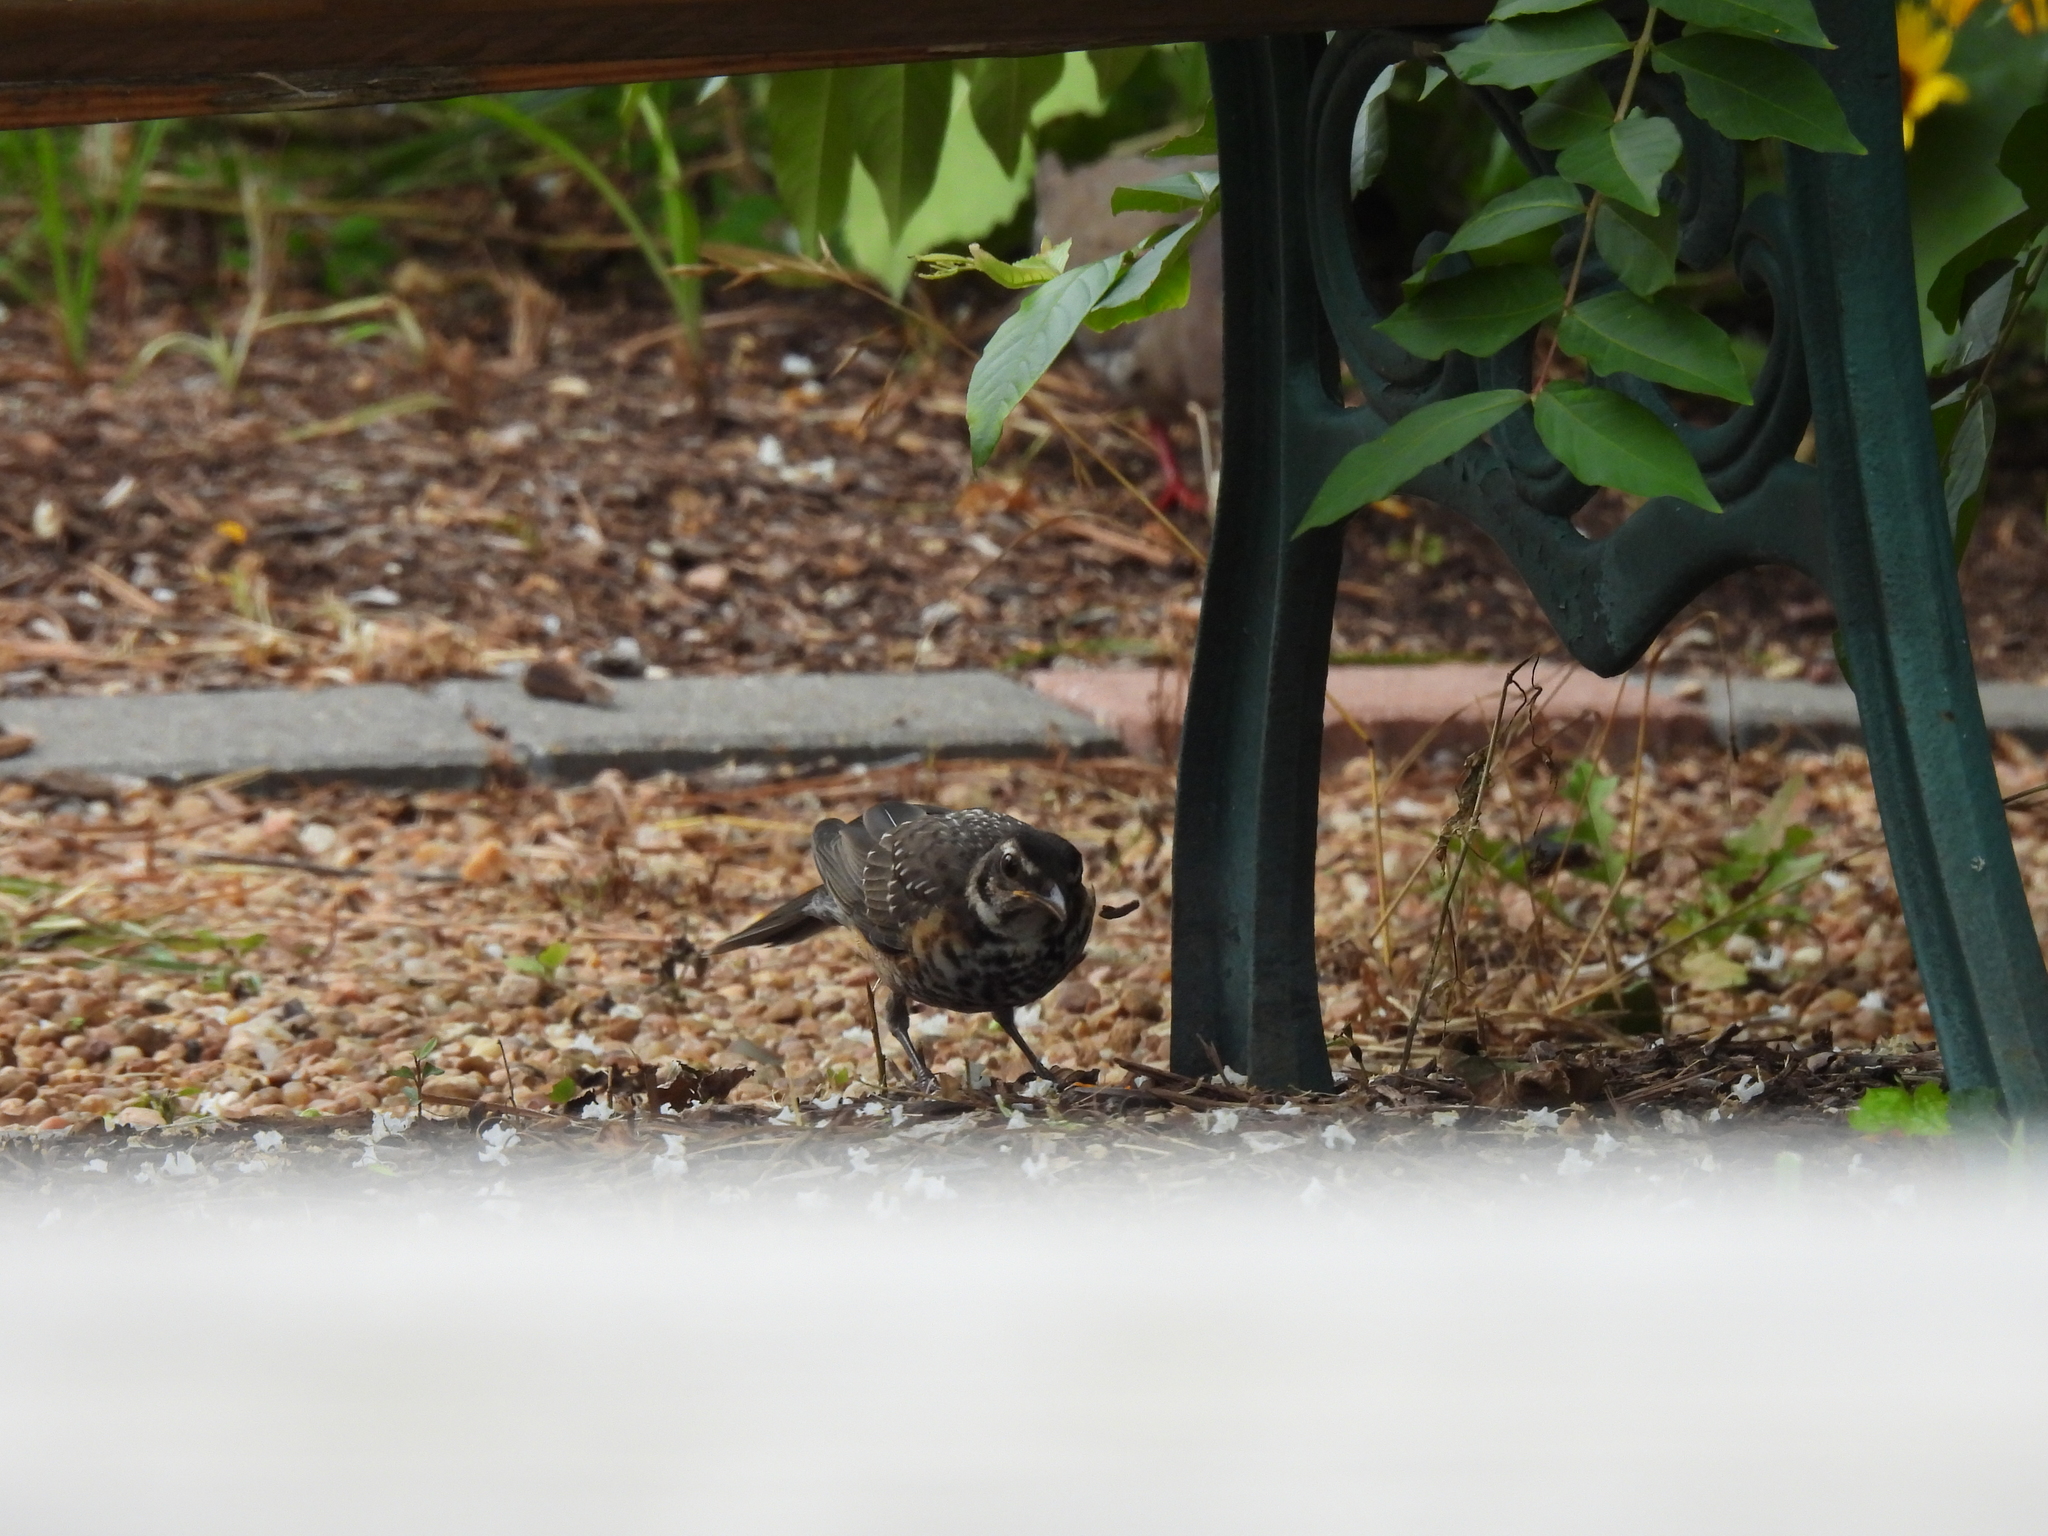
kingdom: Animalia
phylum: Chordata
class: Aves
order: Passeriformes
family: Turdidae
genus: Turdus
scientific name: Turdus migratorius
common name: American robin
